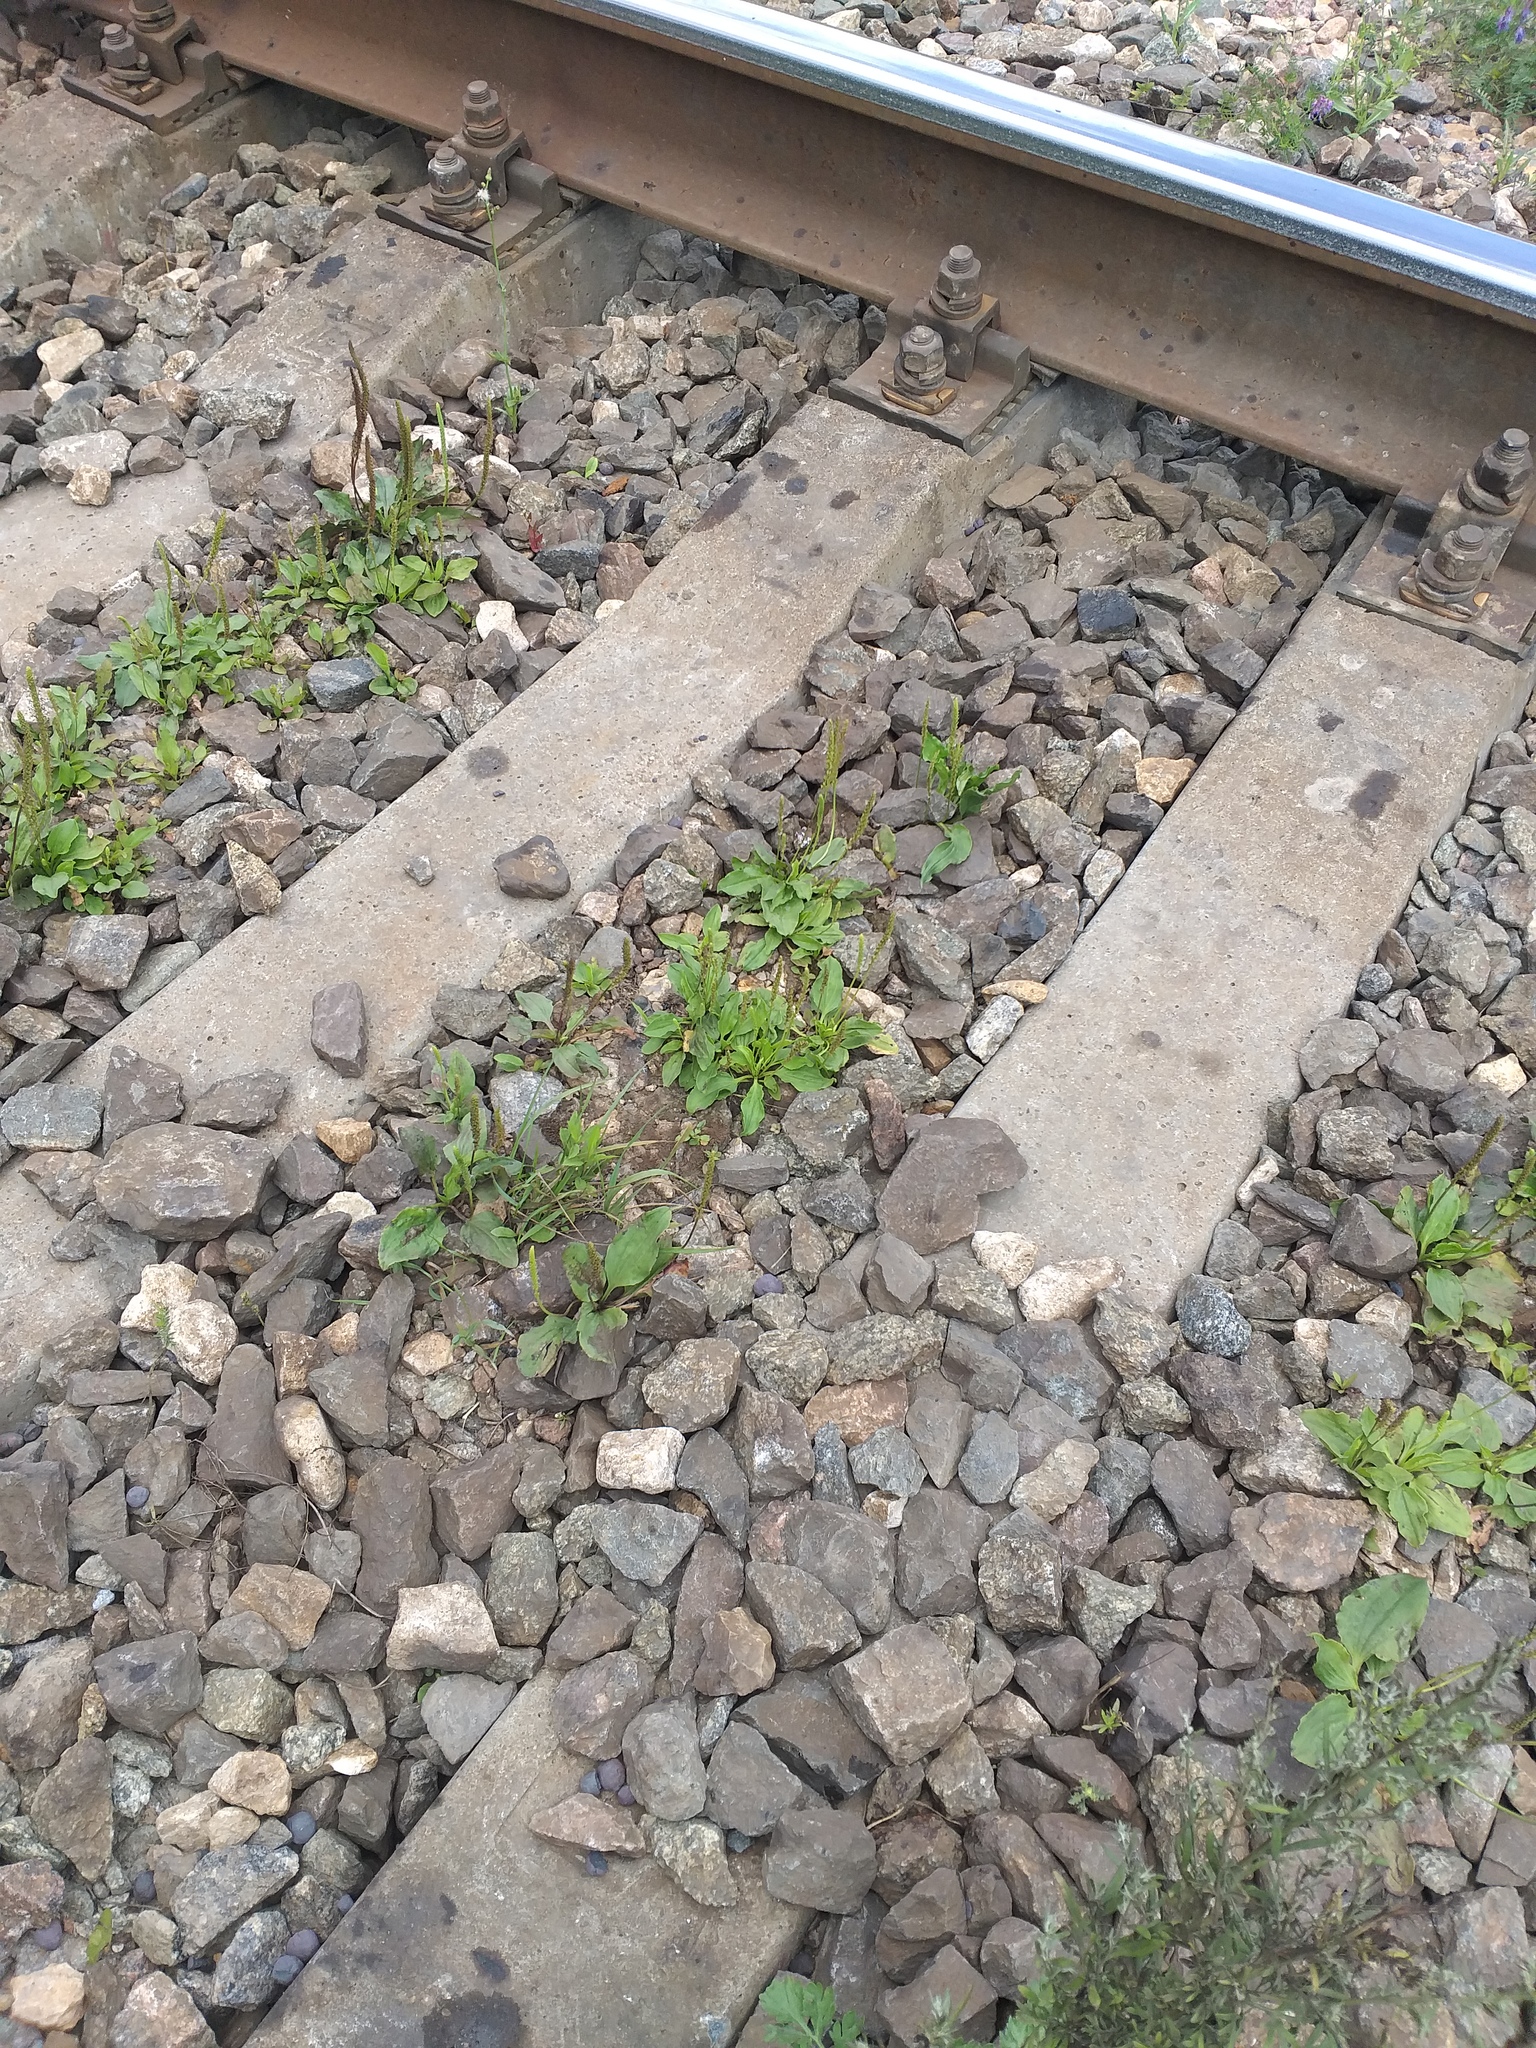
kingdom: Plantae
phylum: Tracheophyta
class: Magnoliopsida
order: Lamiales
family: Plantaginaceae
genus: Plantago
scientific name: Plantago major
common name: Common plantain
